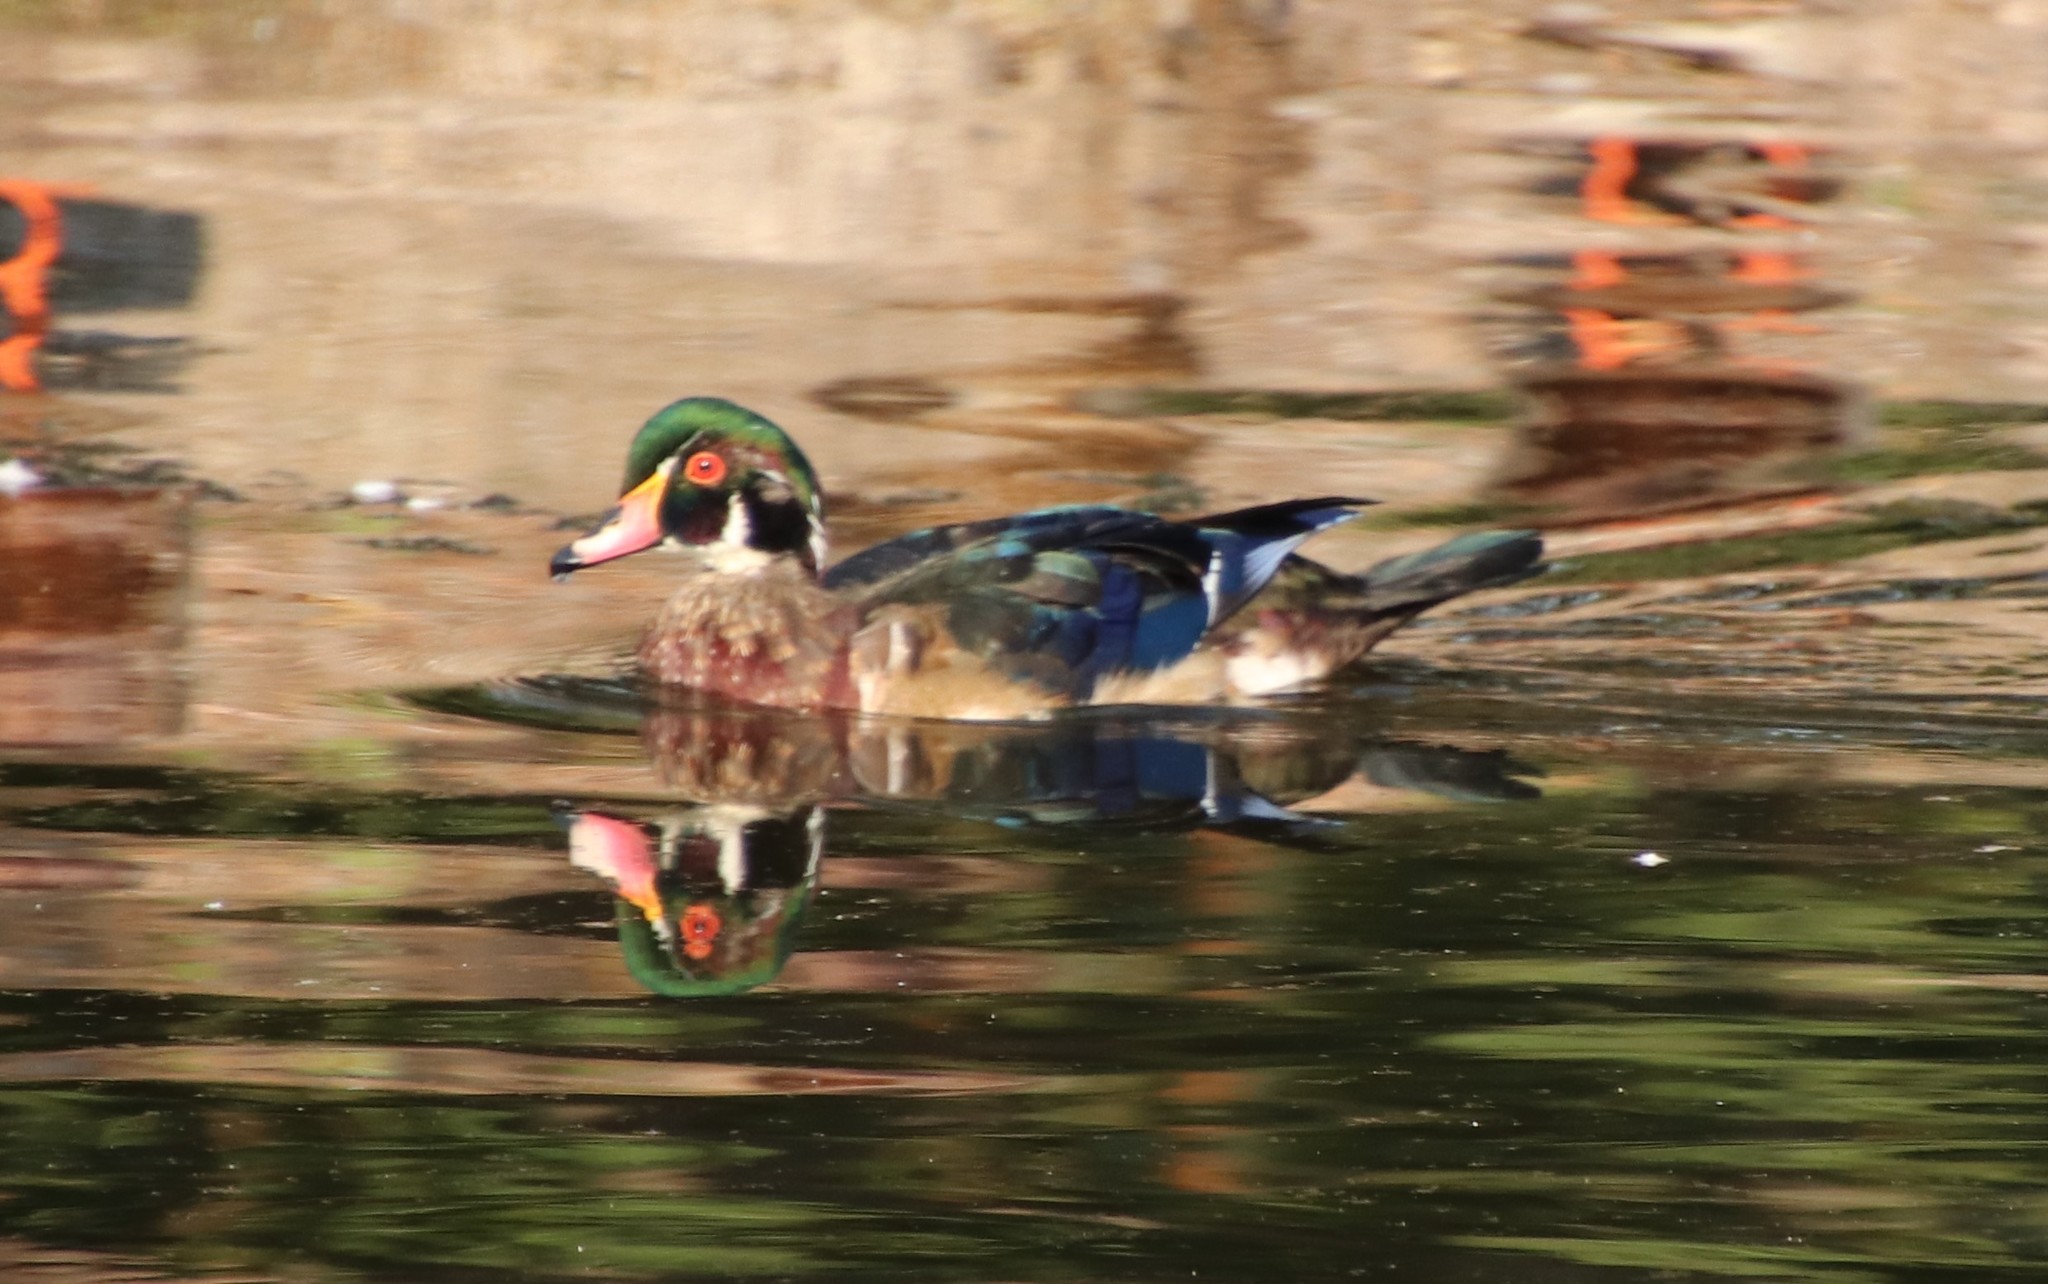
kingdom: Animalia
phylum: Chordata
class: Aves
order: Anseriformes
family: Anatidae
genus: Aix
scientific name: Aix sponsa
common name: Wood duck
